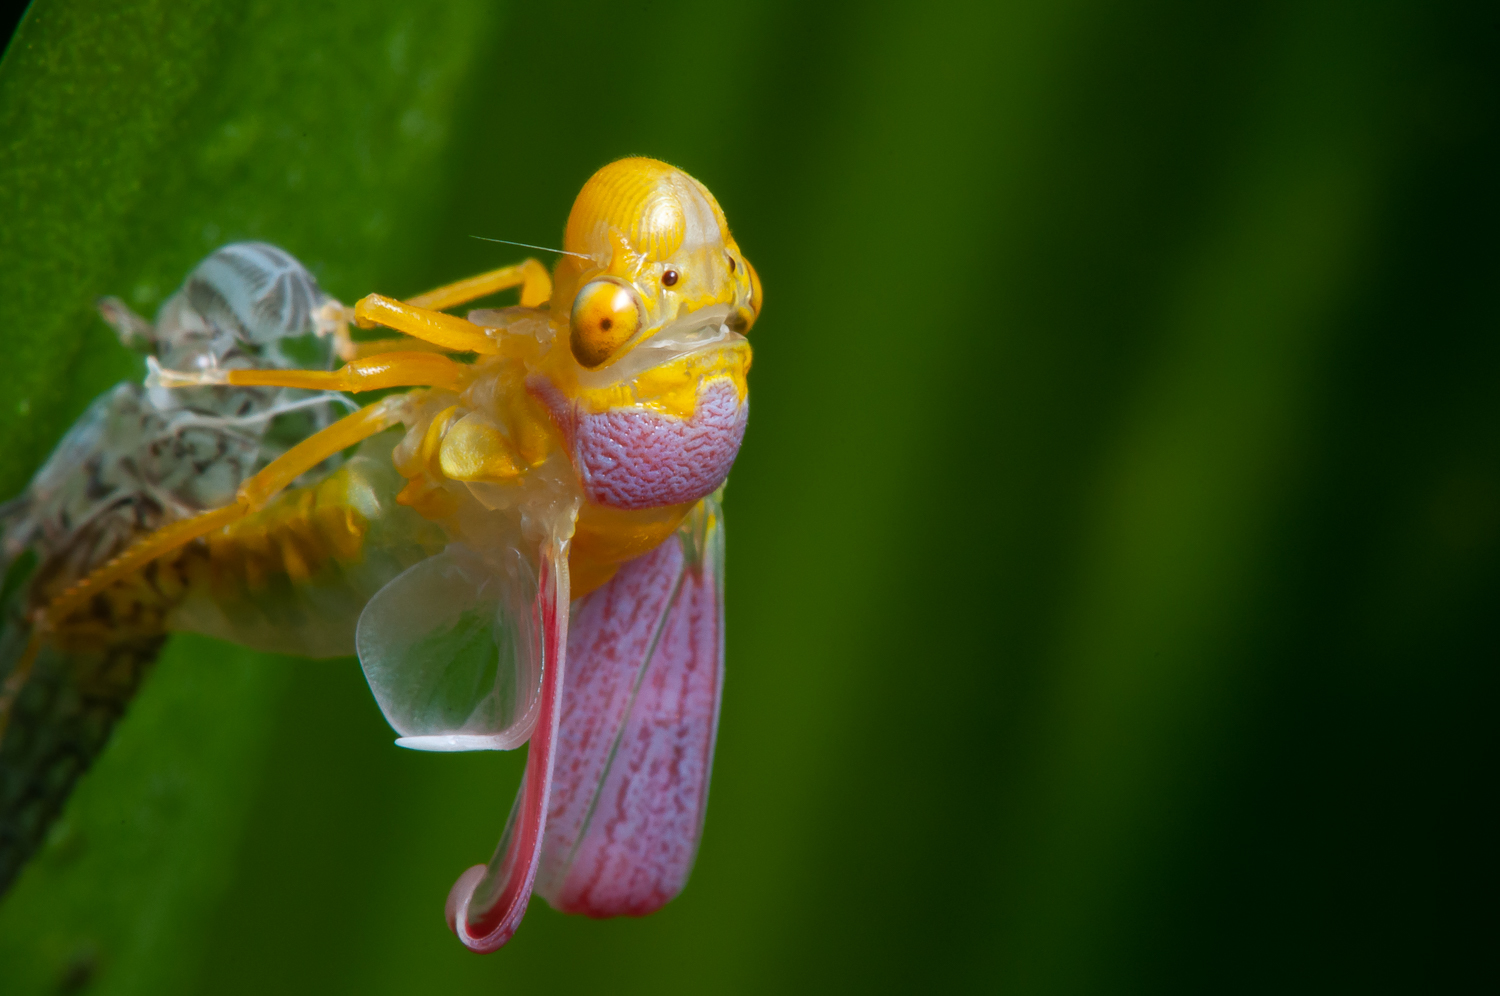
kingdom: Animalia
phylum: Arthropoda
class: Insecta
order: Hemiptera
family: Cicadellidae
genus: Oncometopia
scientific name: Oncometopia
